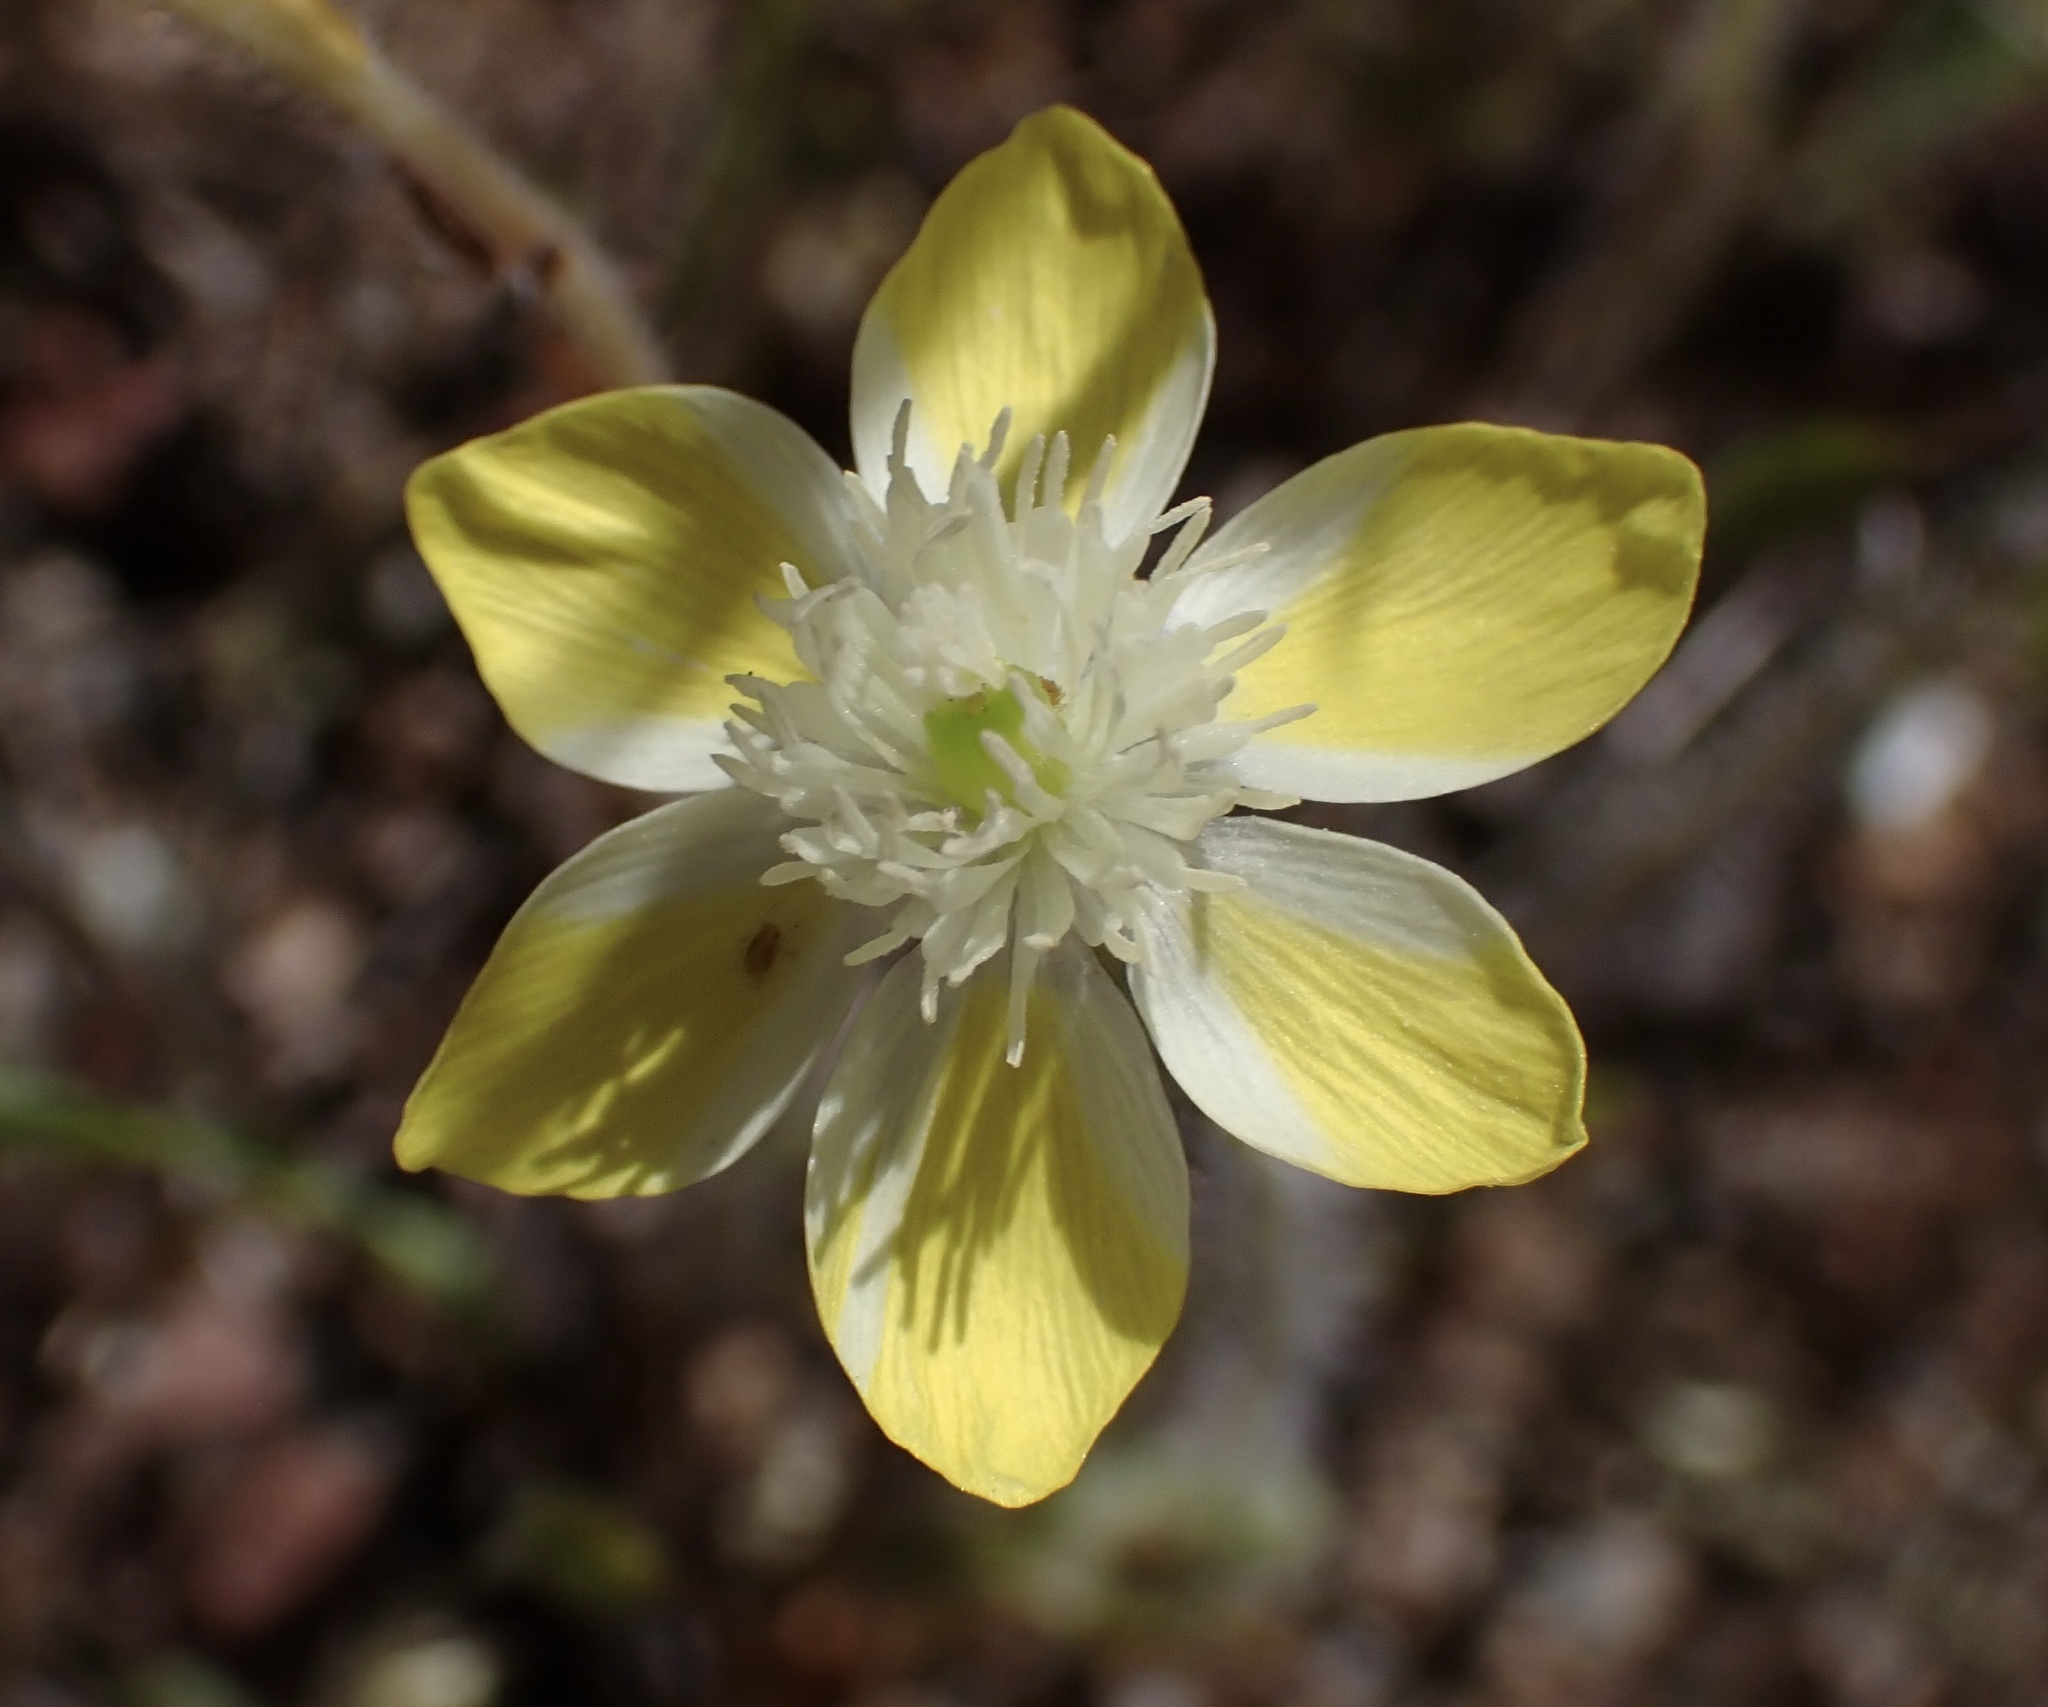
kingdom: Plantae
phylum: Tracheophyta
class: Magnoliopsida
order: Ranunculales
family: Papaveraceae
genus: Platystemon
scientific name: Platystemon californicus
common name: Cream-cups
